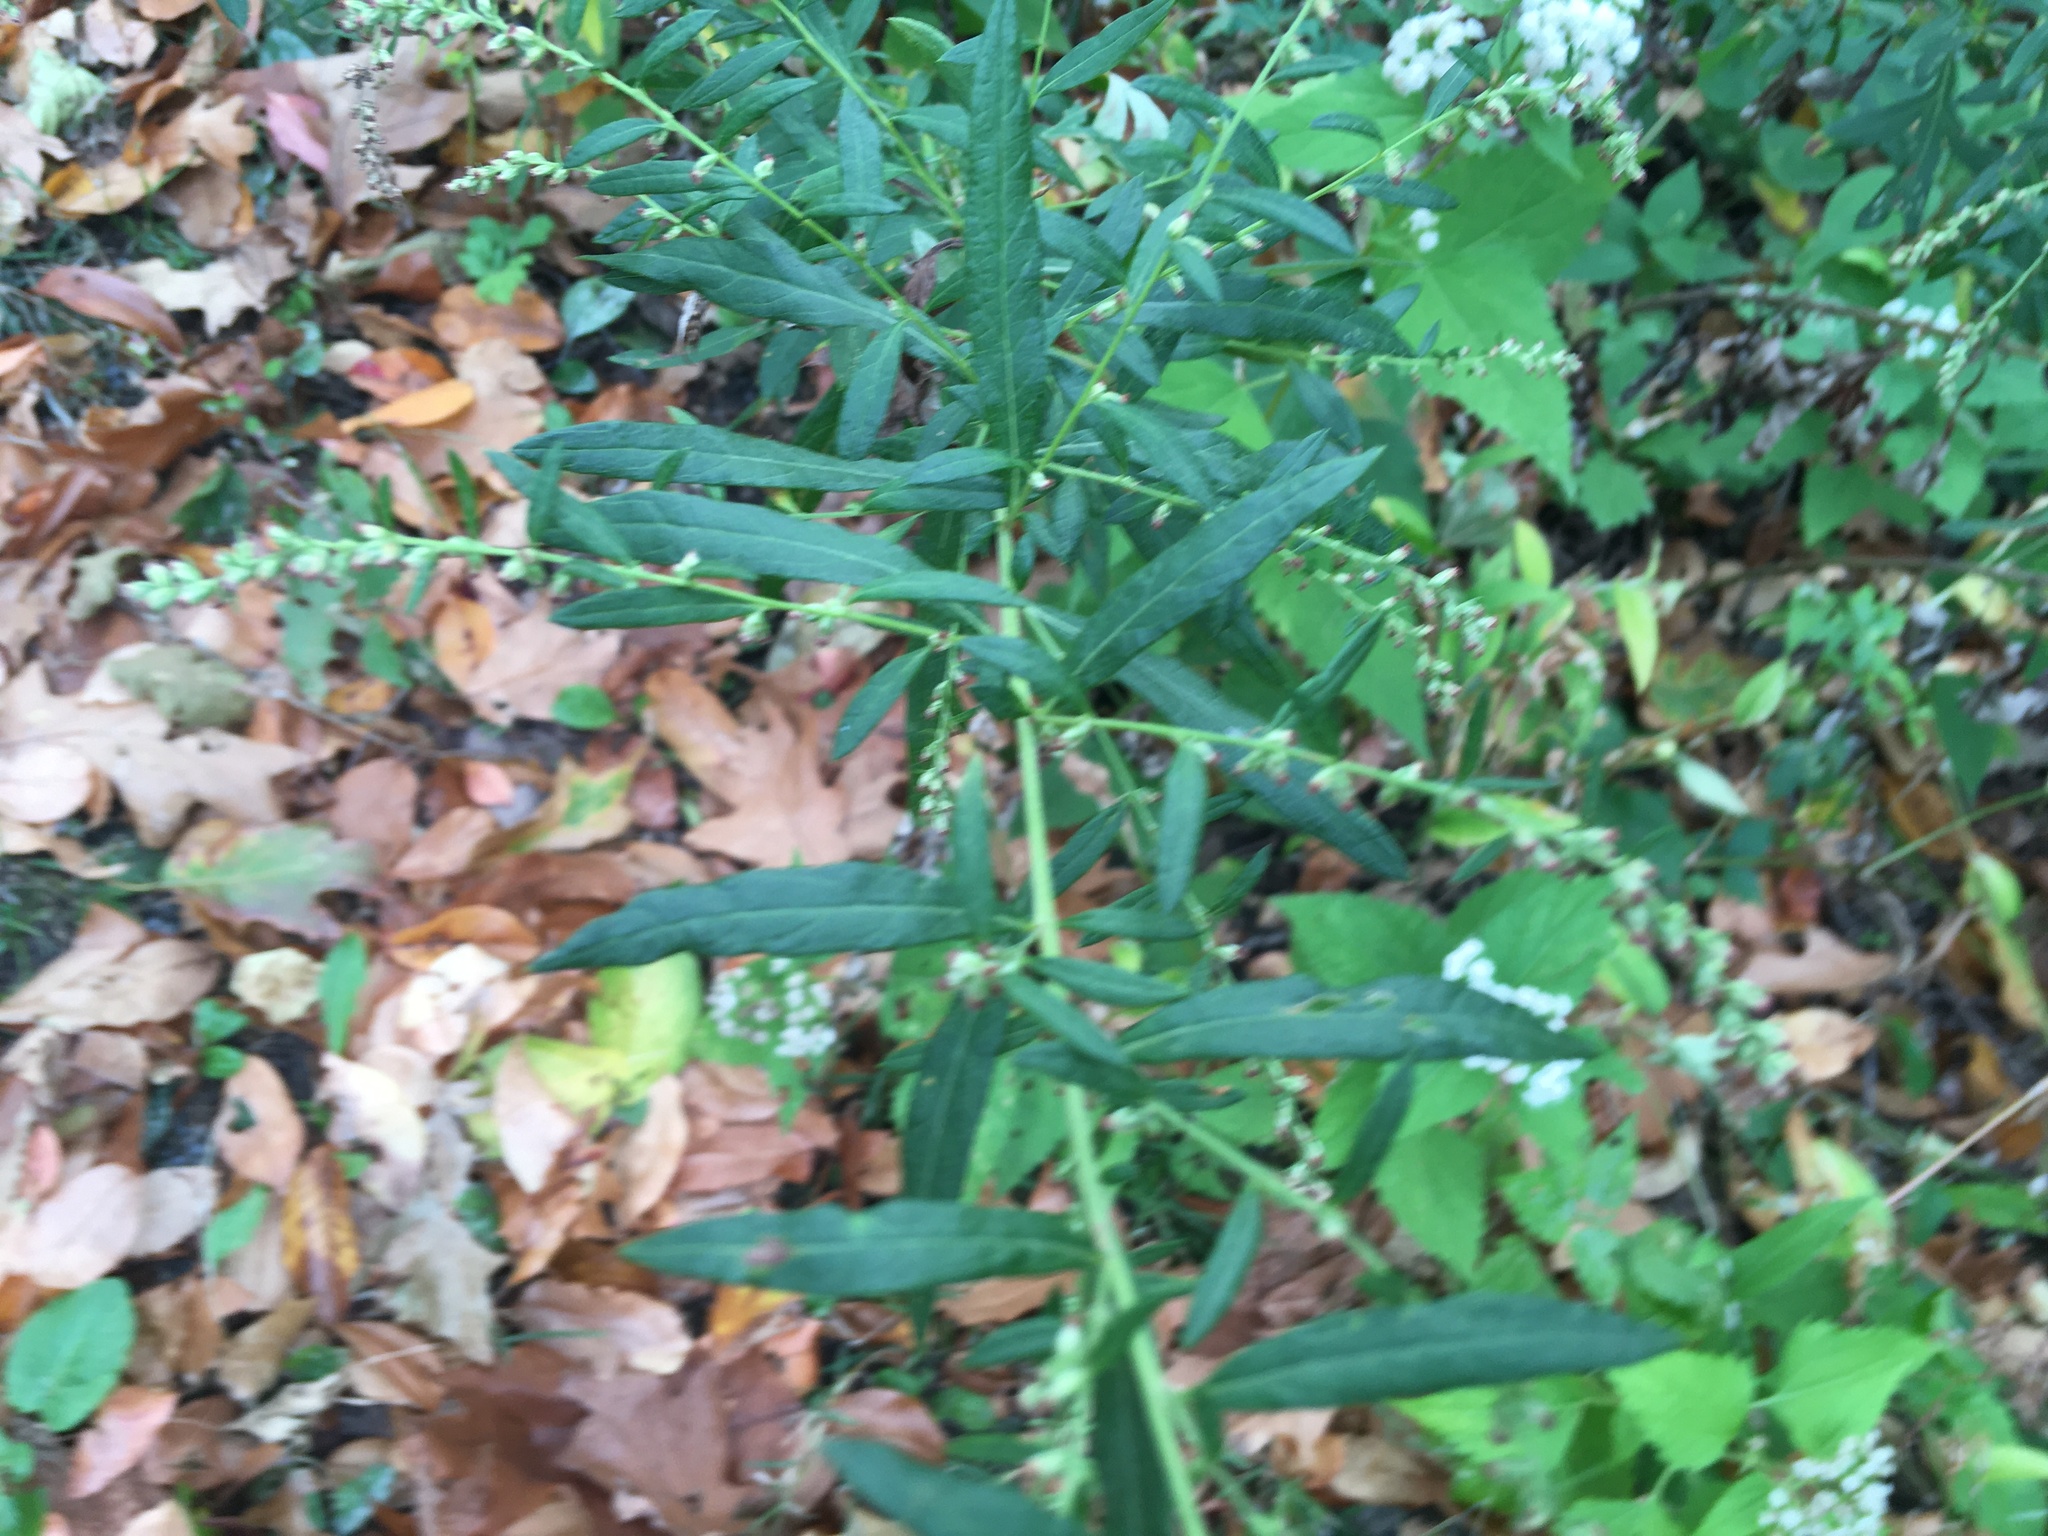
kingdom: Plantae
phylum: Tracheophyta
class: Magnoliopsida
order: Asterales
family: Asteraceae
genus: Artemisia
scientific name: Artemisia vulgaris
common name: Mugwort
